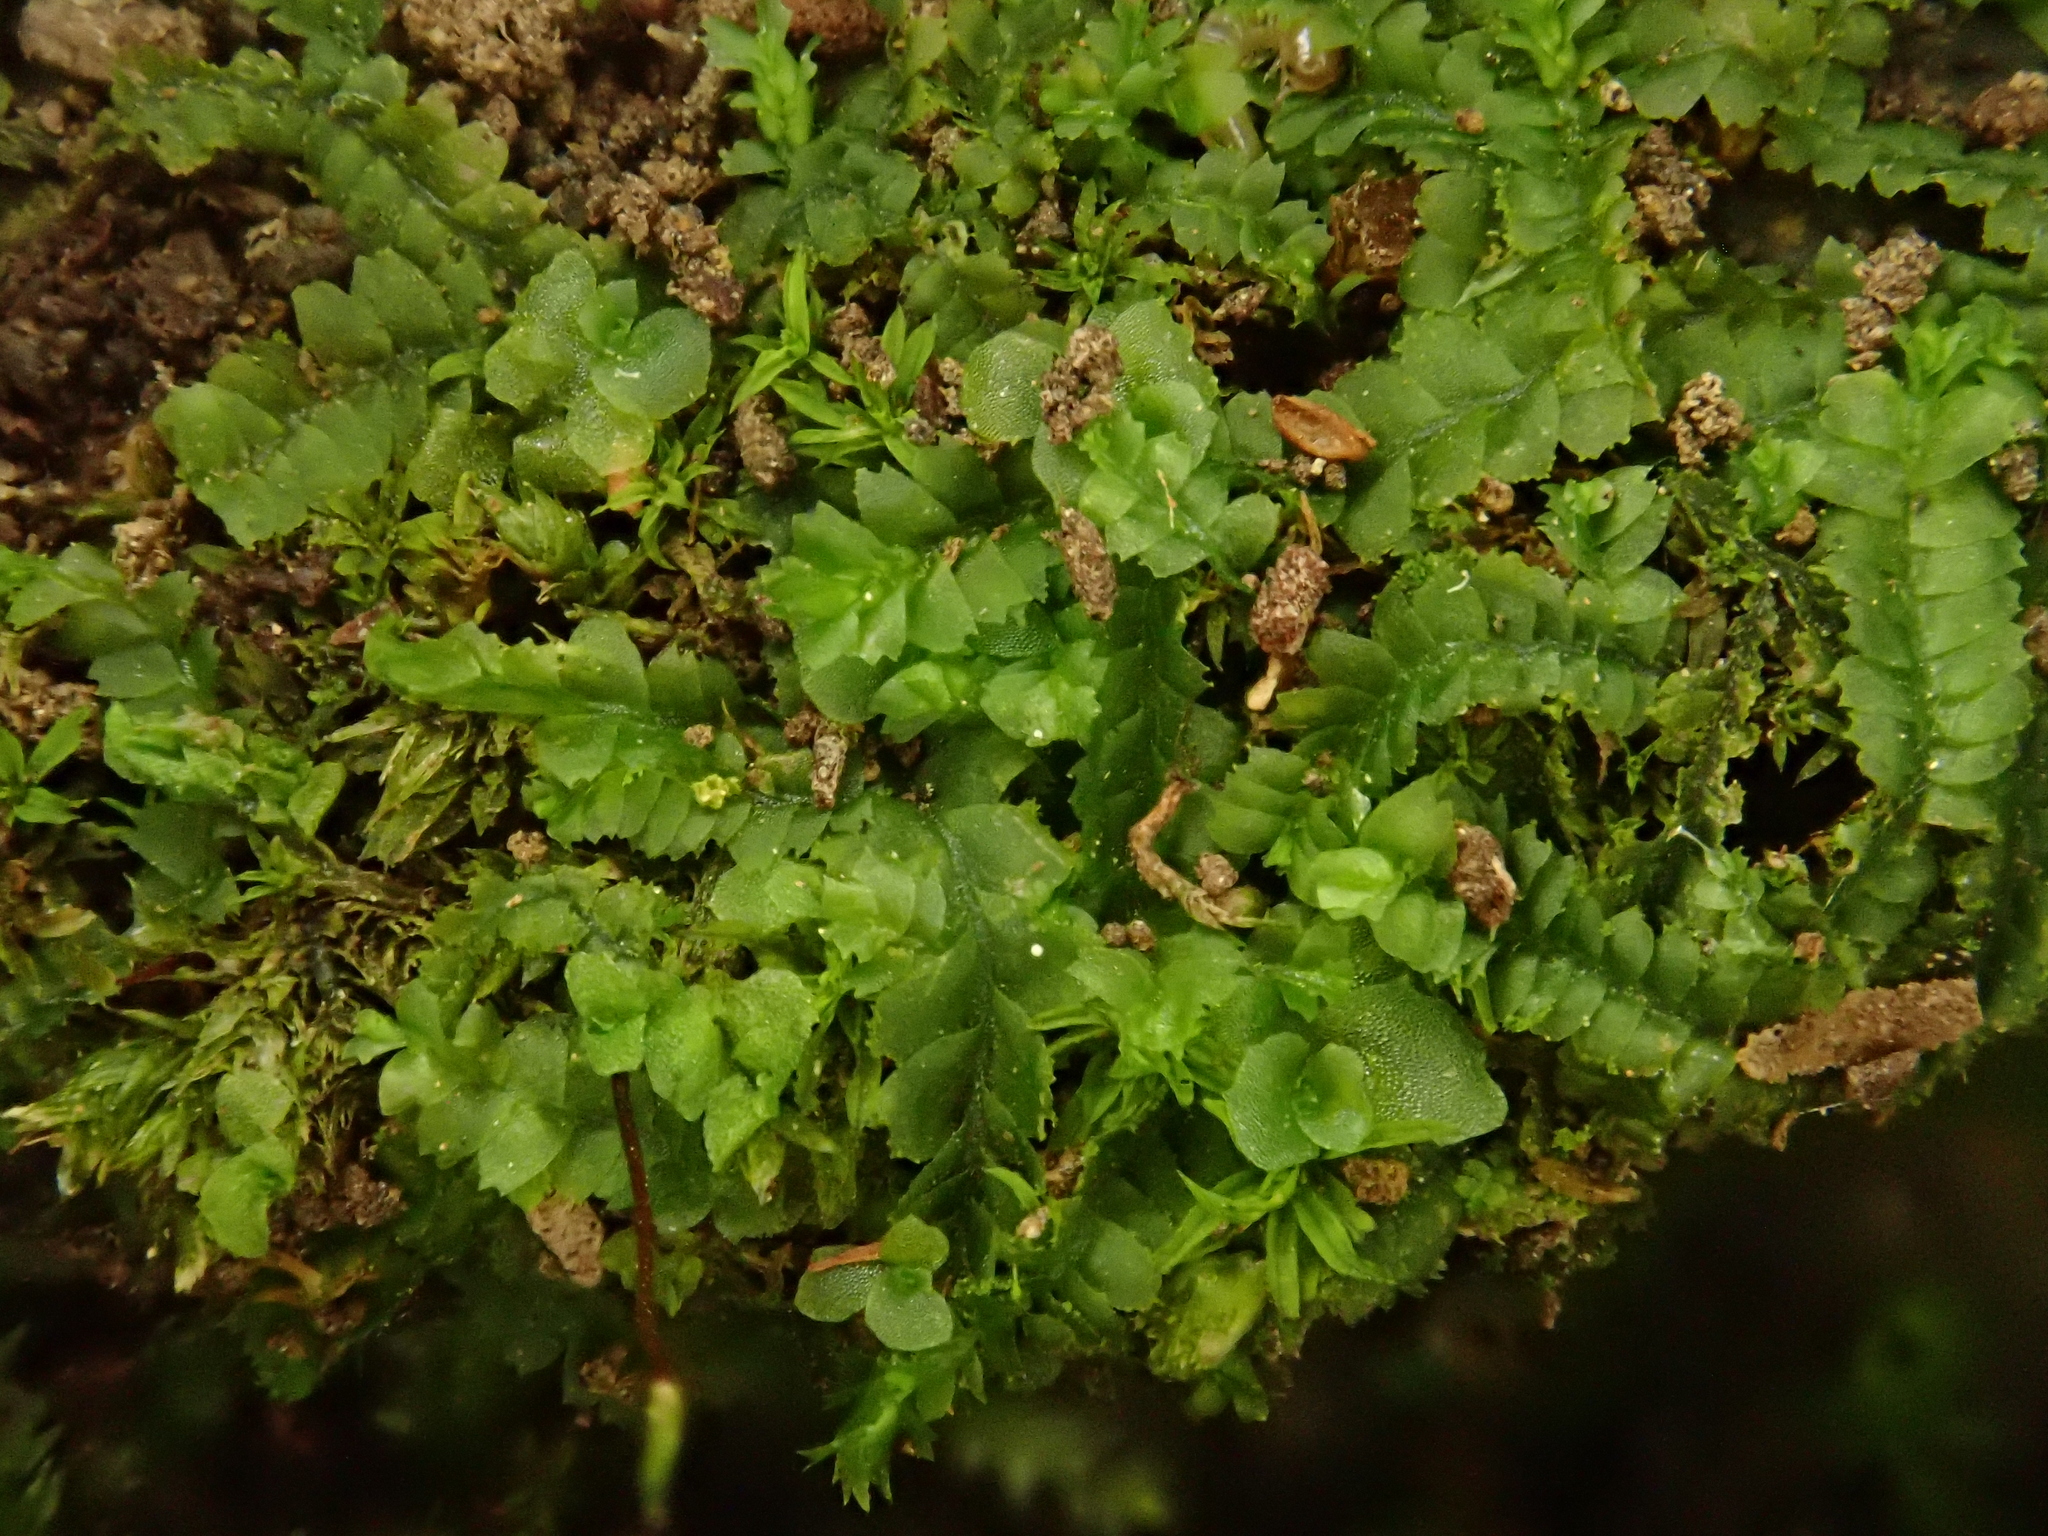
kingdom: Plantae
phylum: Marchantiophyta
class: Jungermanniopsida
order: Jungermanniales
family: Lophocoleaceae
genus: Lophocolea
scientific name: Lophocolea heterophylla
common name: Variable-leaved crestwort
